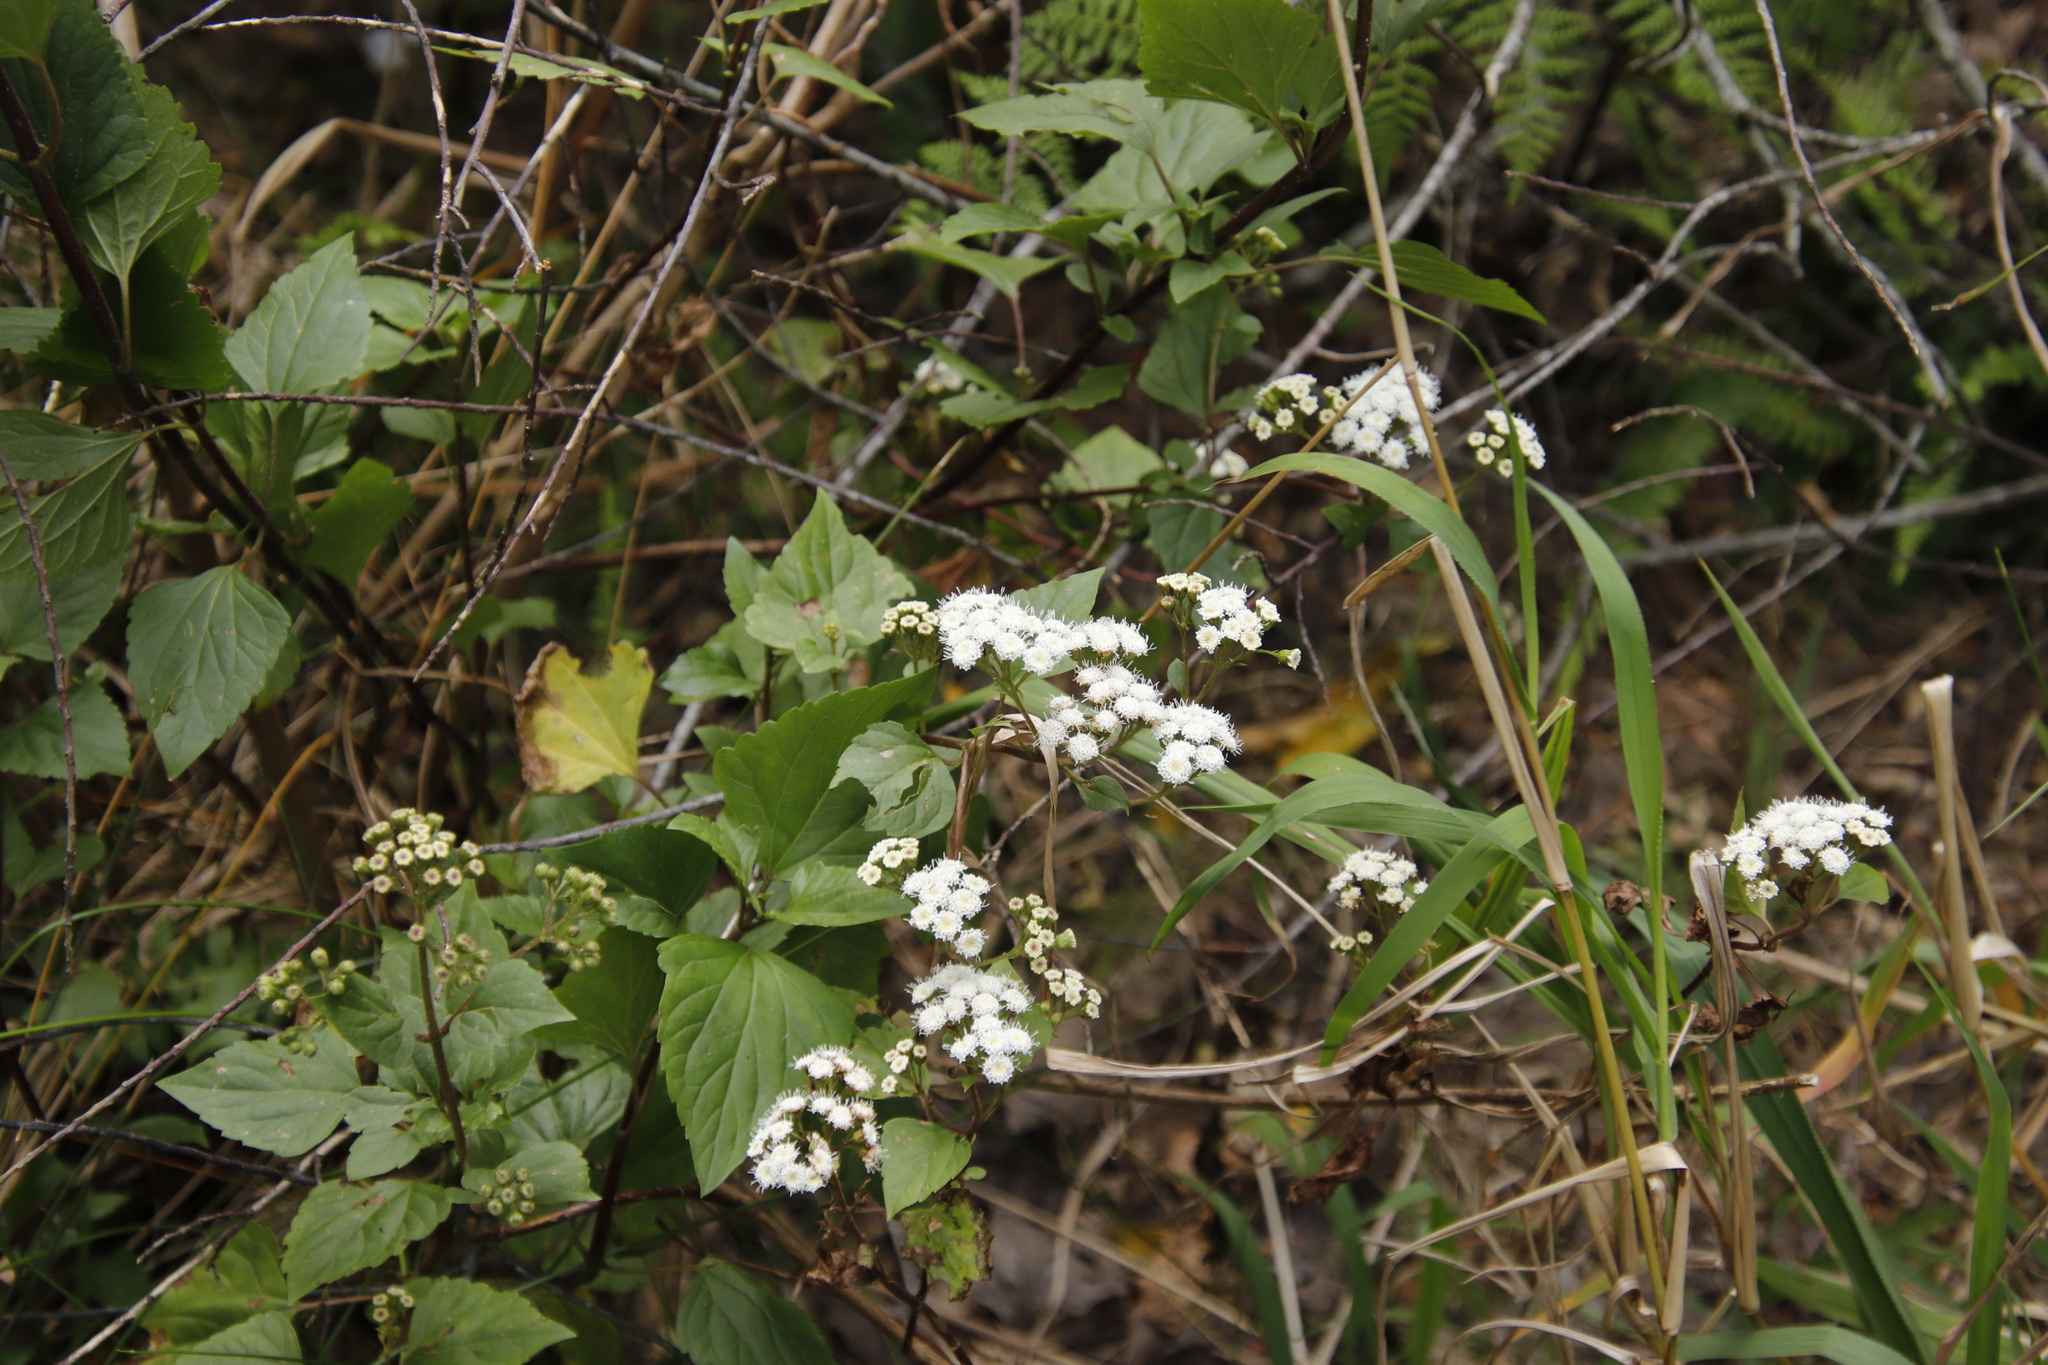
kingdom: Plantae
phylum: Tracheophyta
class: Magnoliopsida
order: Asterales
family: Asteraceae
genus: Ageratina
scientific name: Ageratina adenophora
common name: Sticky snakeroot
